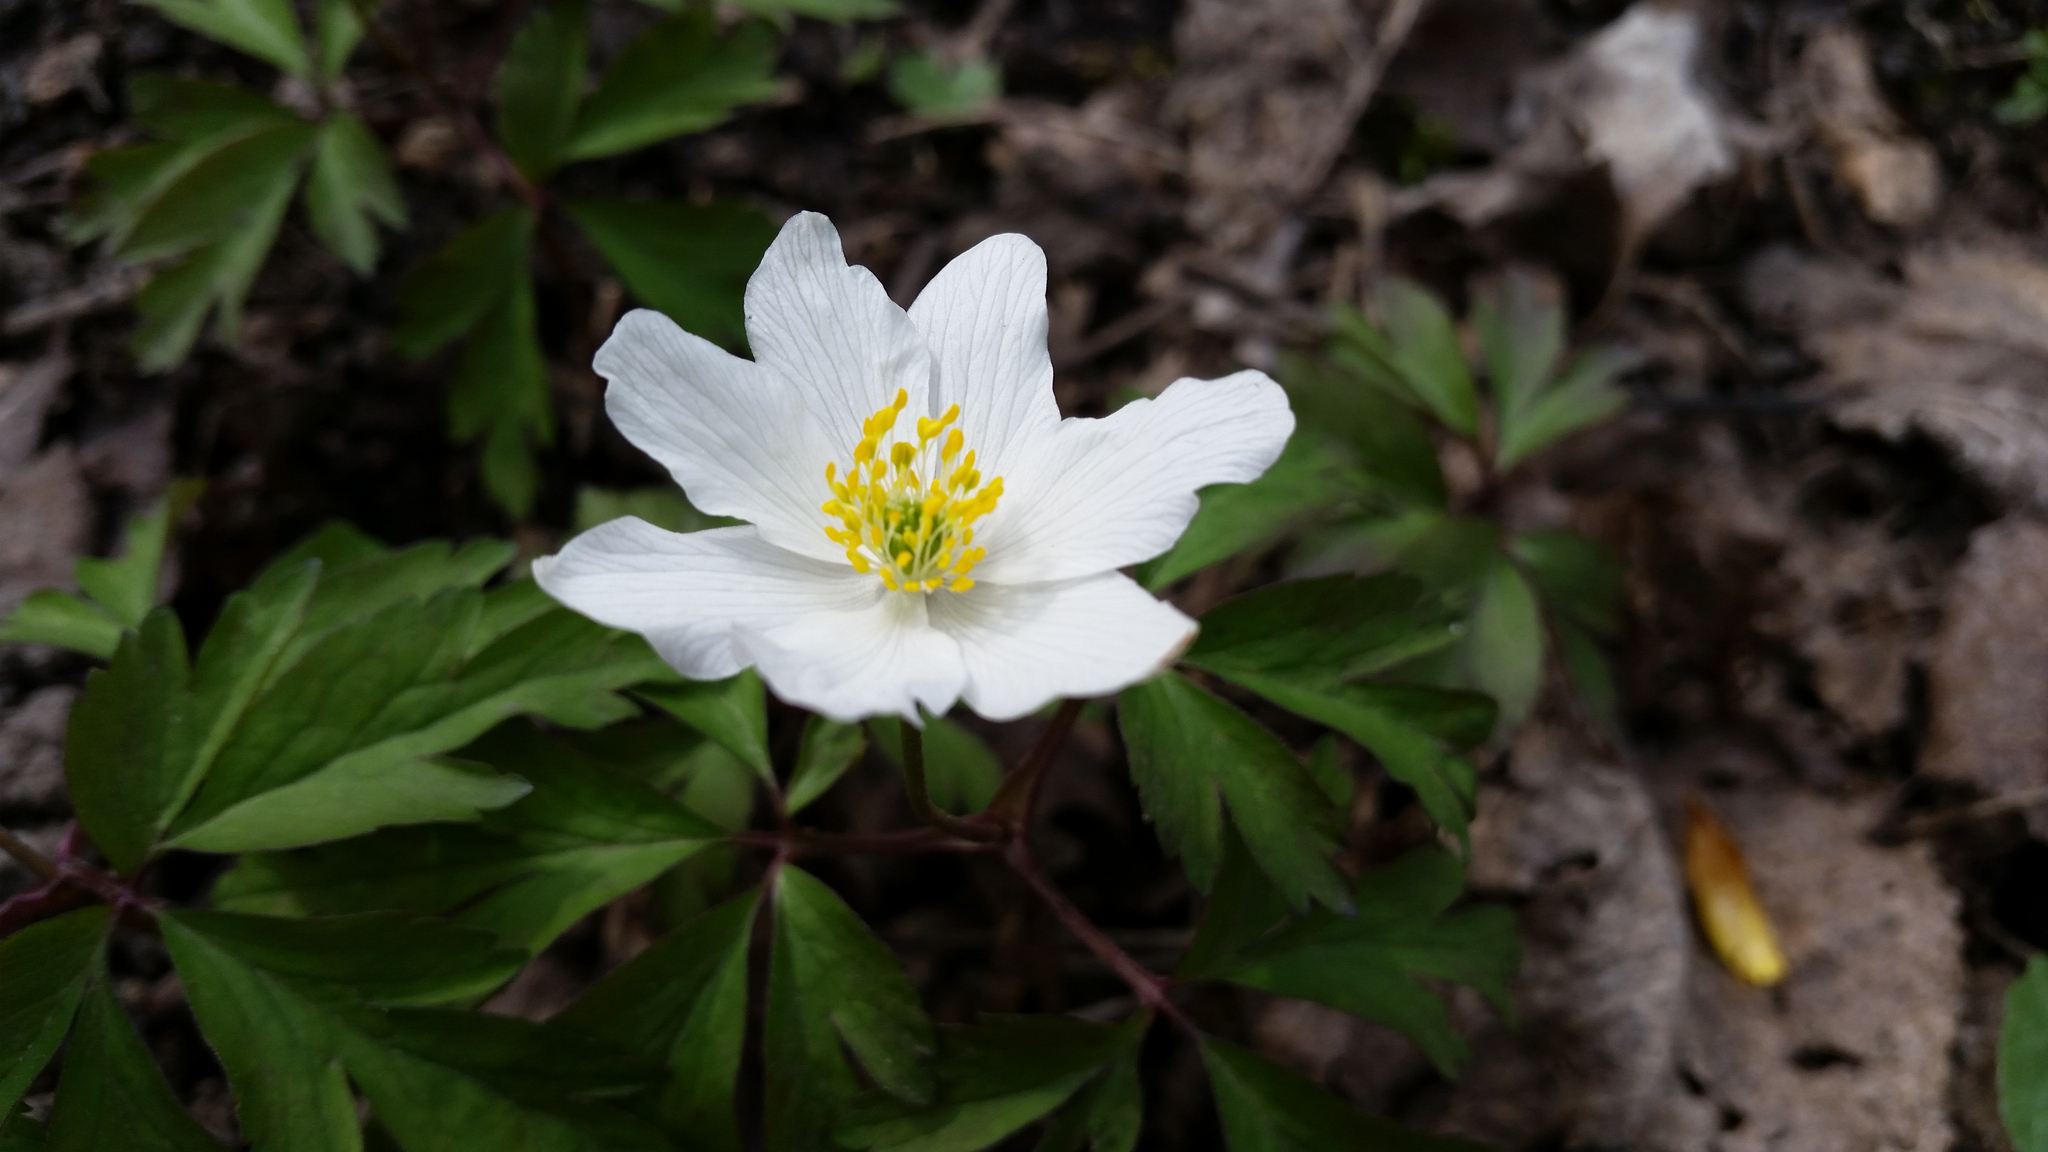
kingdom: Plantae
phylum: Tracheophyta
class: Magnoliopsida
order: Ranunculales
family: Ranunculaceae
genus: Anemone
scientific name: Anemone nemorosa
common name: Wood anemone
